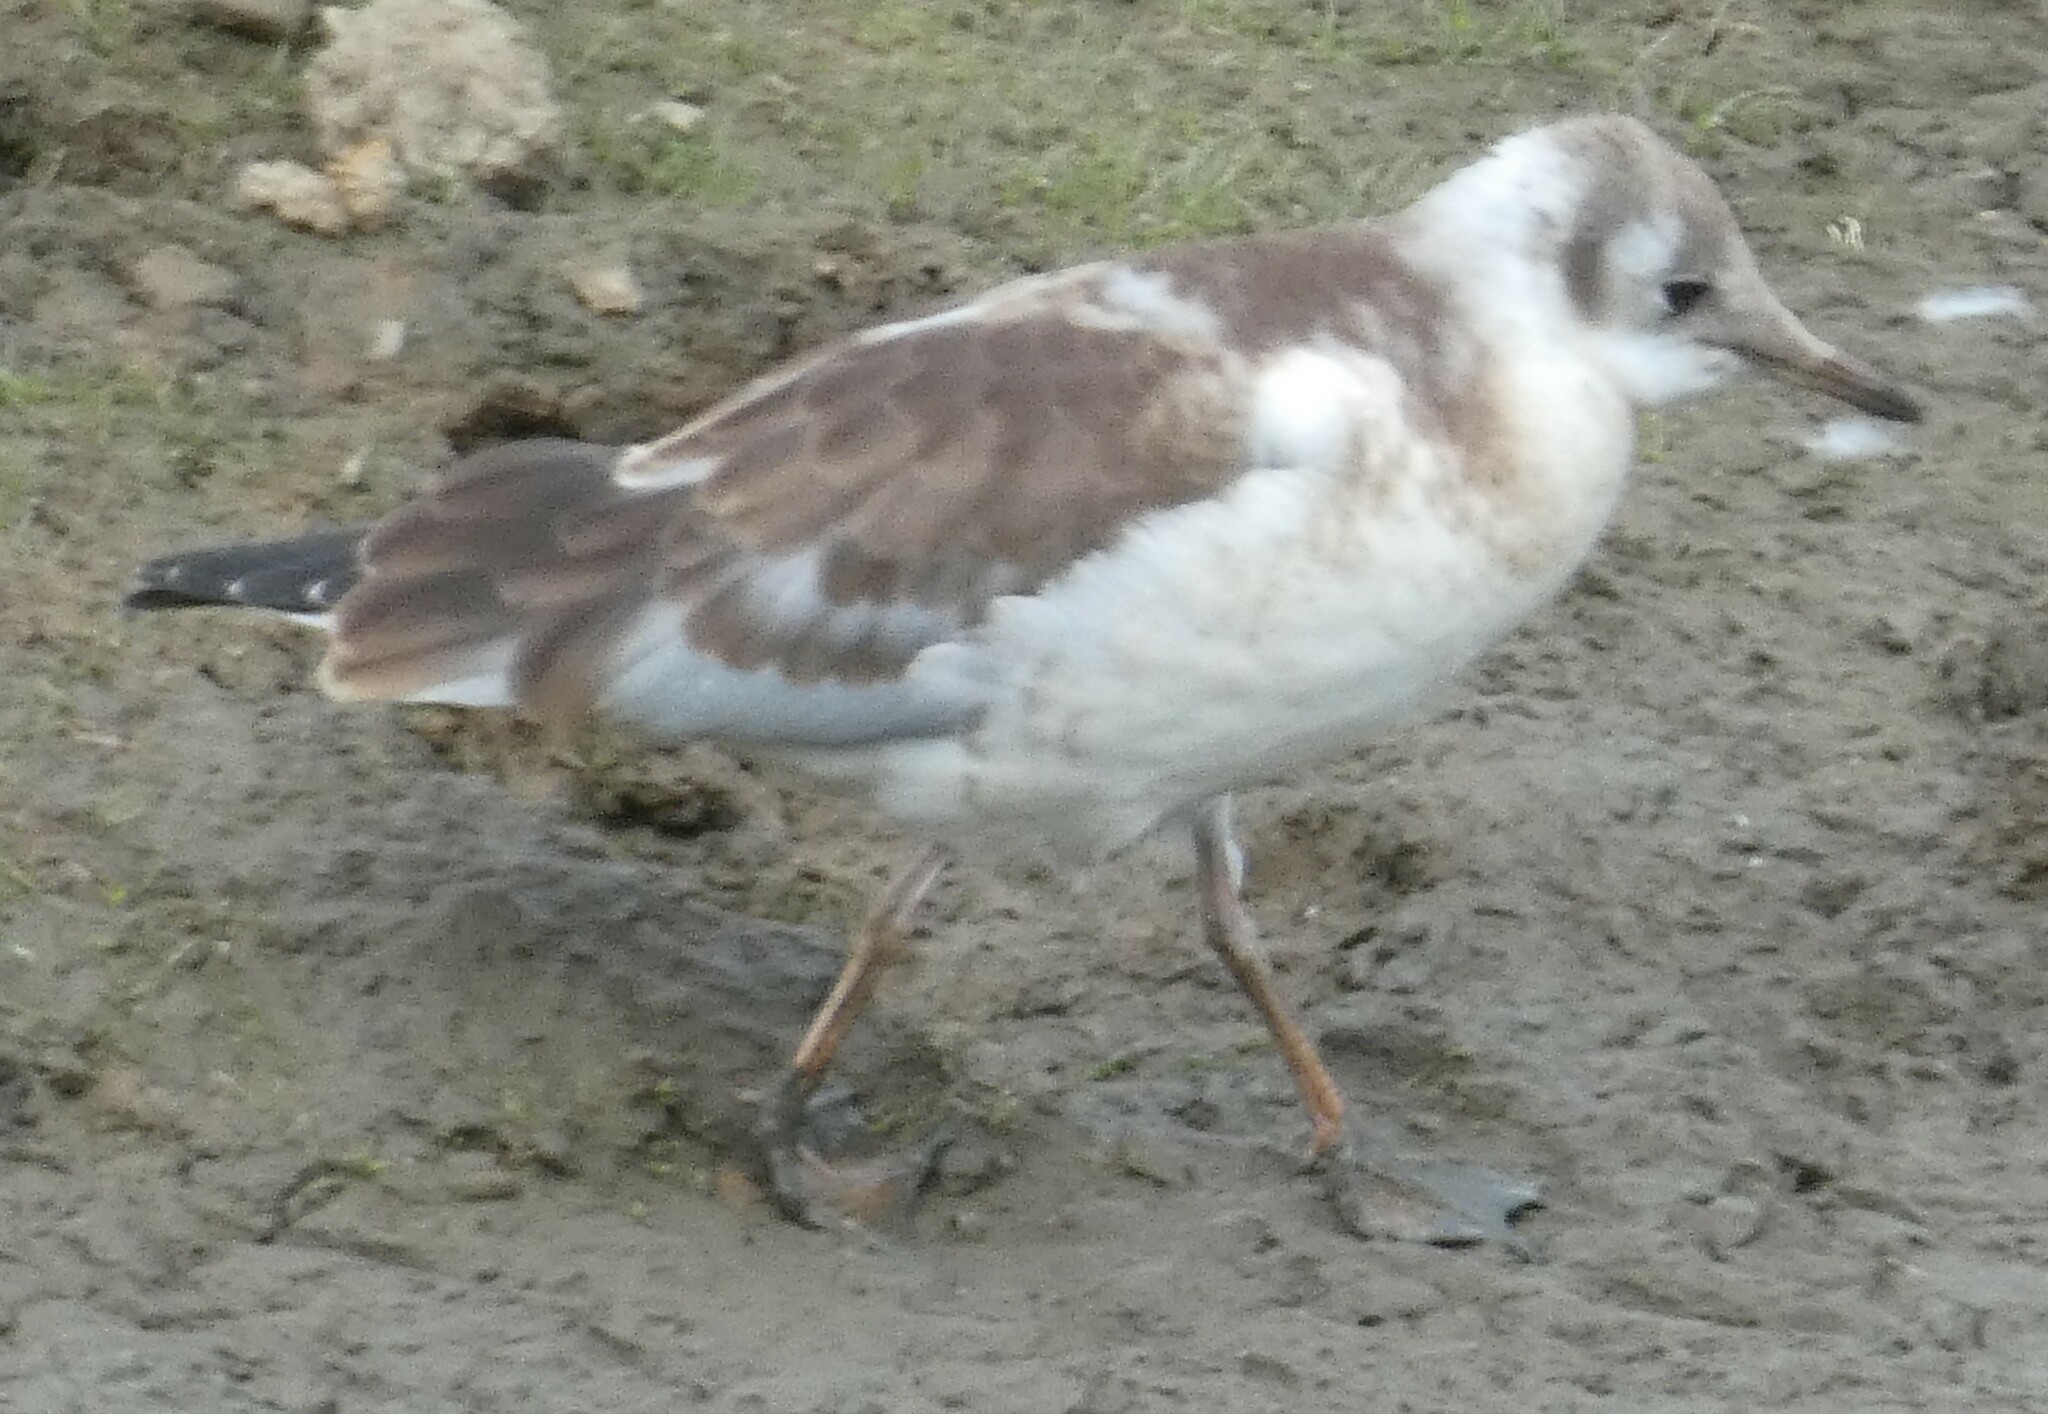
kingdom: Animalia
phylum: Chordata
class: Aves
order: Charadriiformes
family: Laridae
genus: Chroicocephalus
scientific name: Chroicocephalus ridibundus
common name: Black-headed gull
